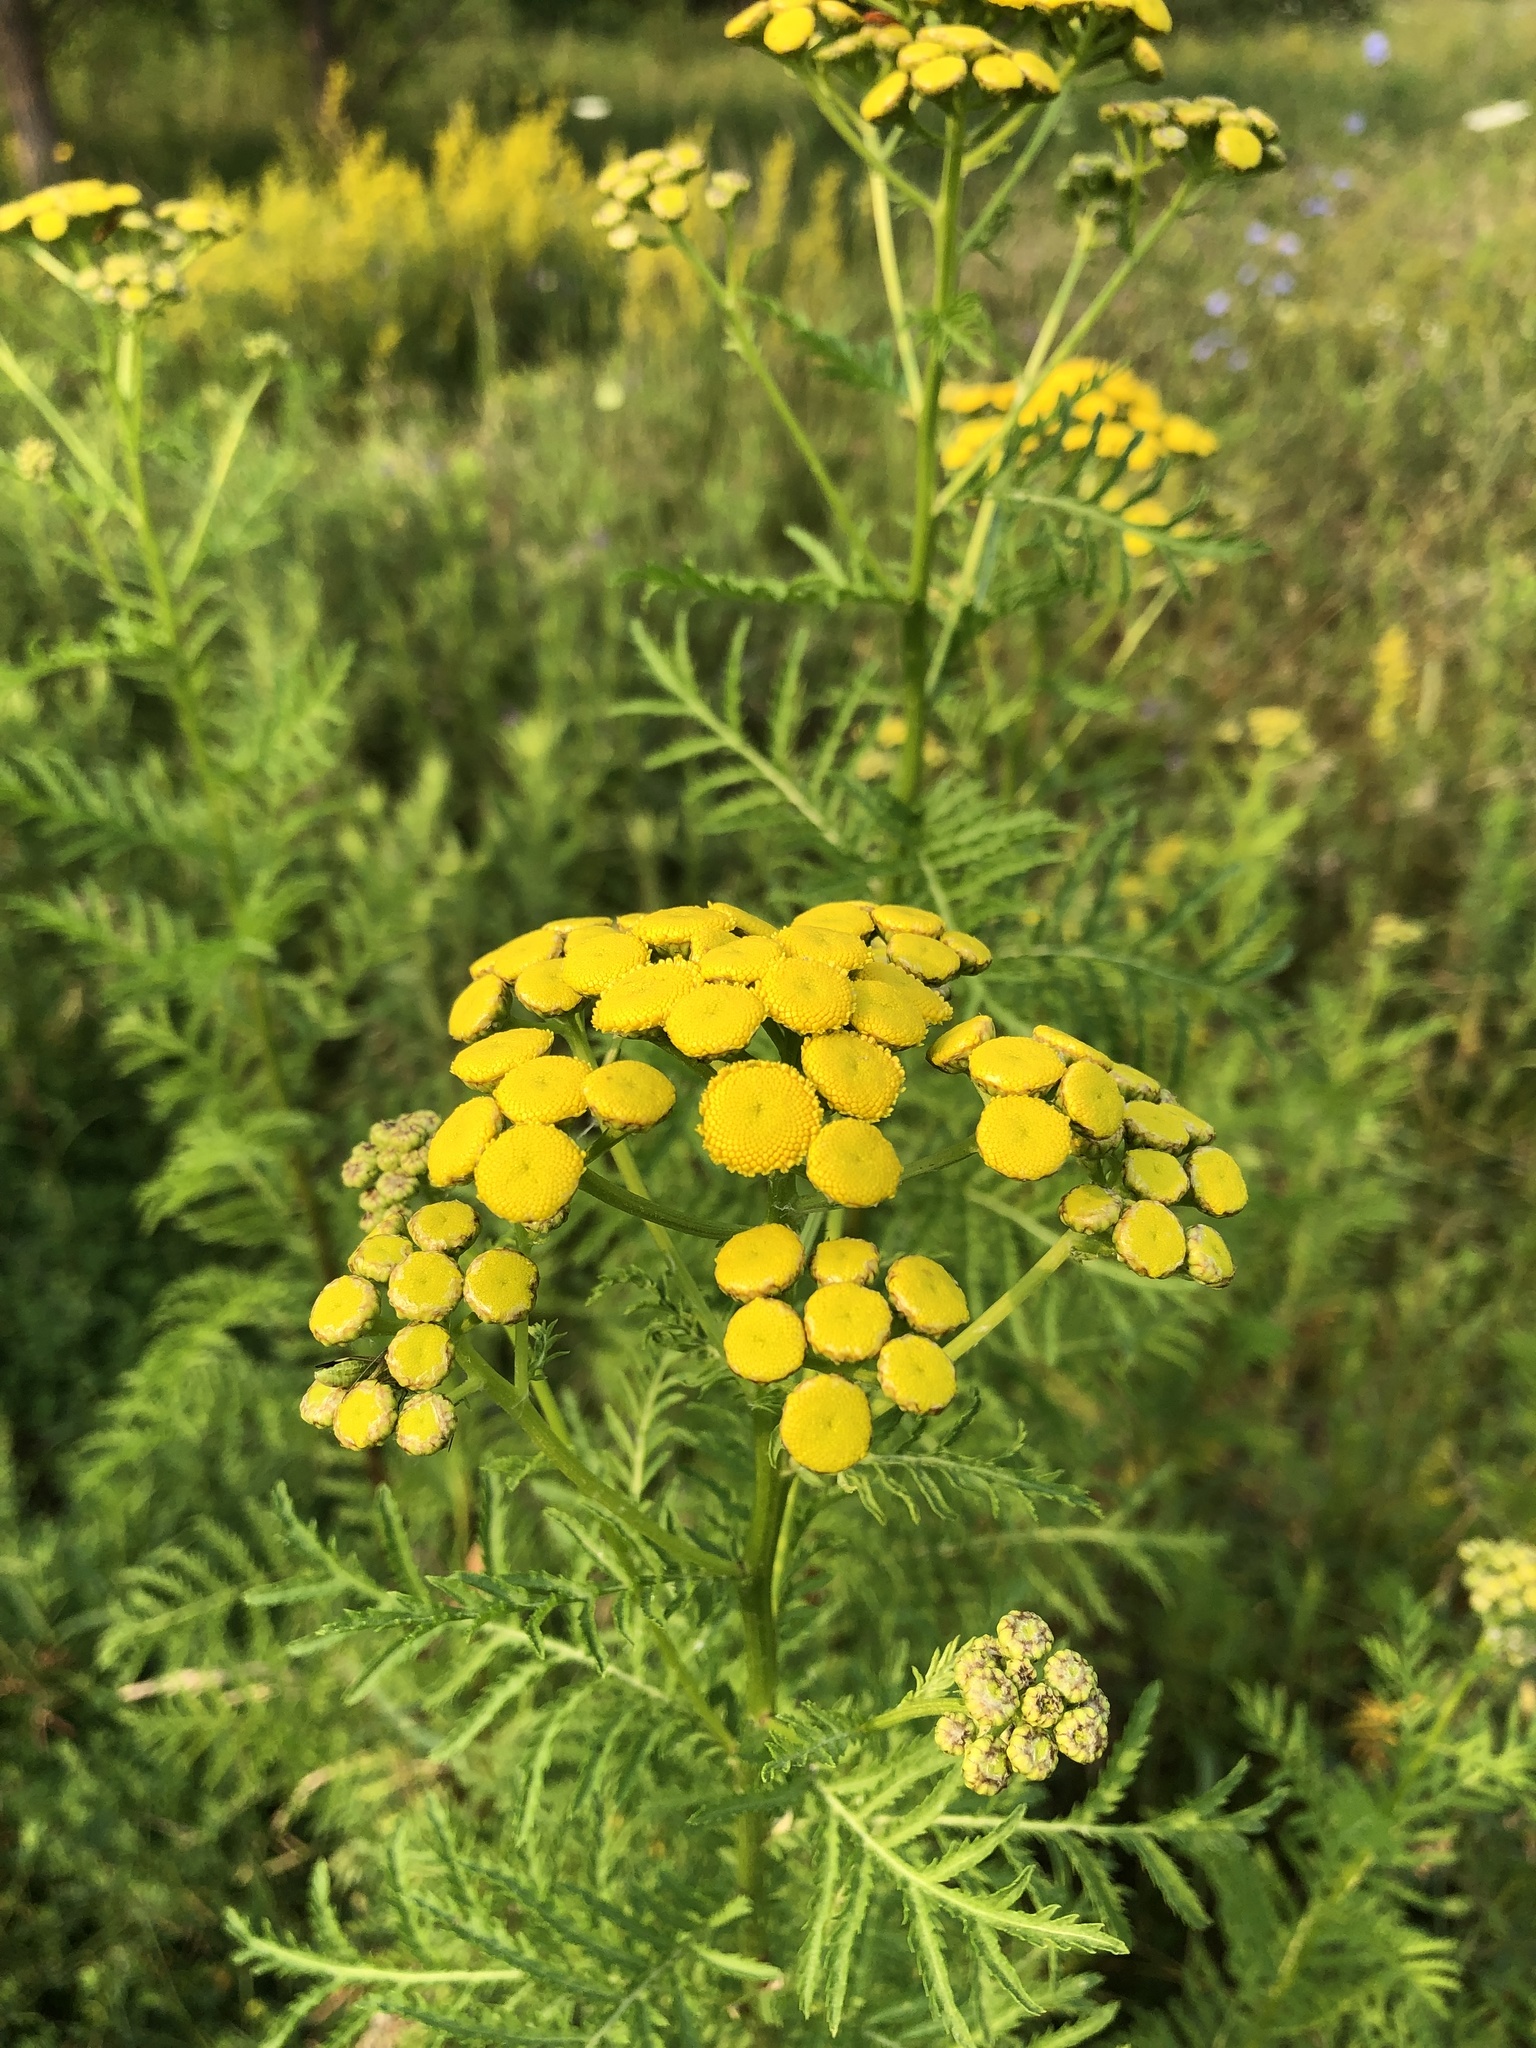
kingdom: Plantae
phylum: Tracheophyta
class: Magnoliopsida
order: Asterales
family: Asteraceae
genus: Tanacetum
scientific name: Tanacetum vulgare
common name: Common tansy
